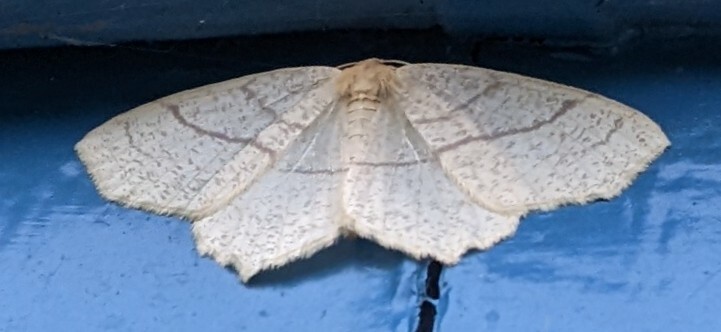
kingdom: Animalia
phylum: Arthropoda
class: Insecta
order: Lepidoptera
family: Geometridae
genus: Besma
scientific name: Besma endropiaria
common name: Straw besma
